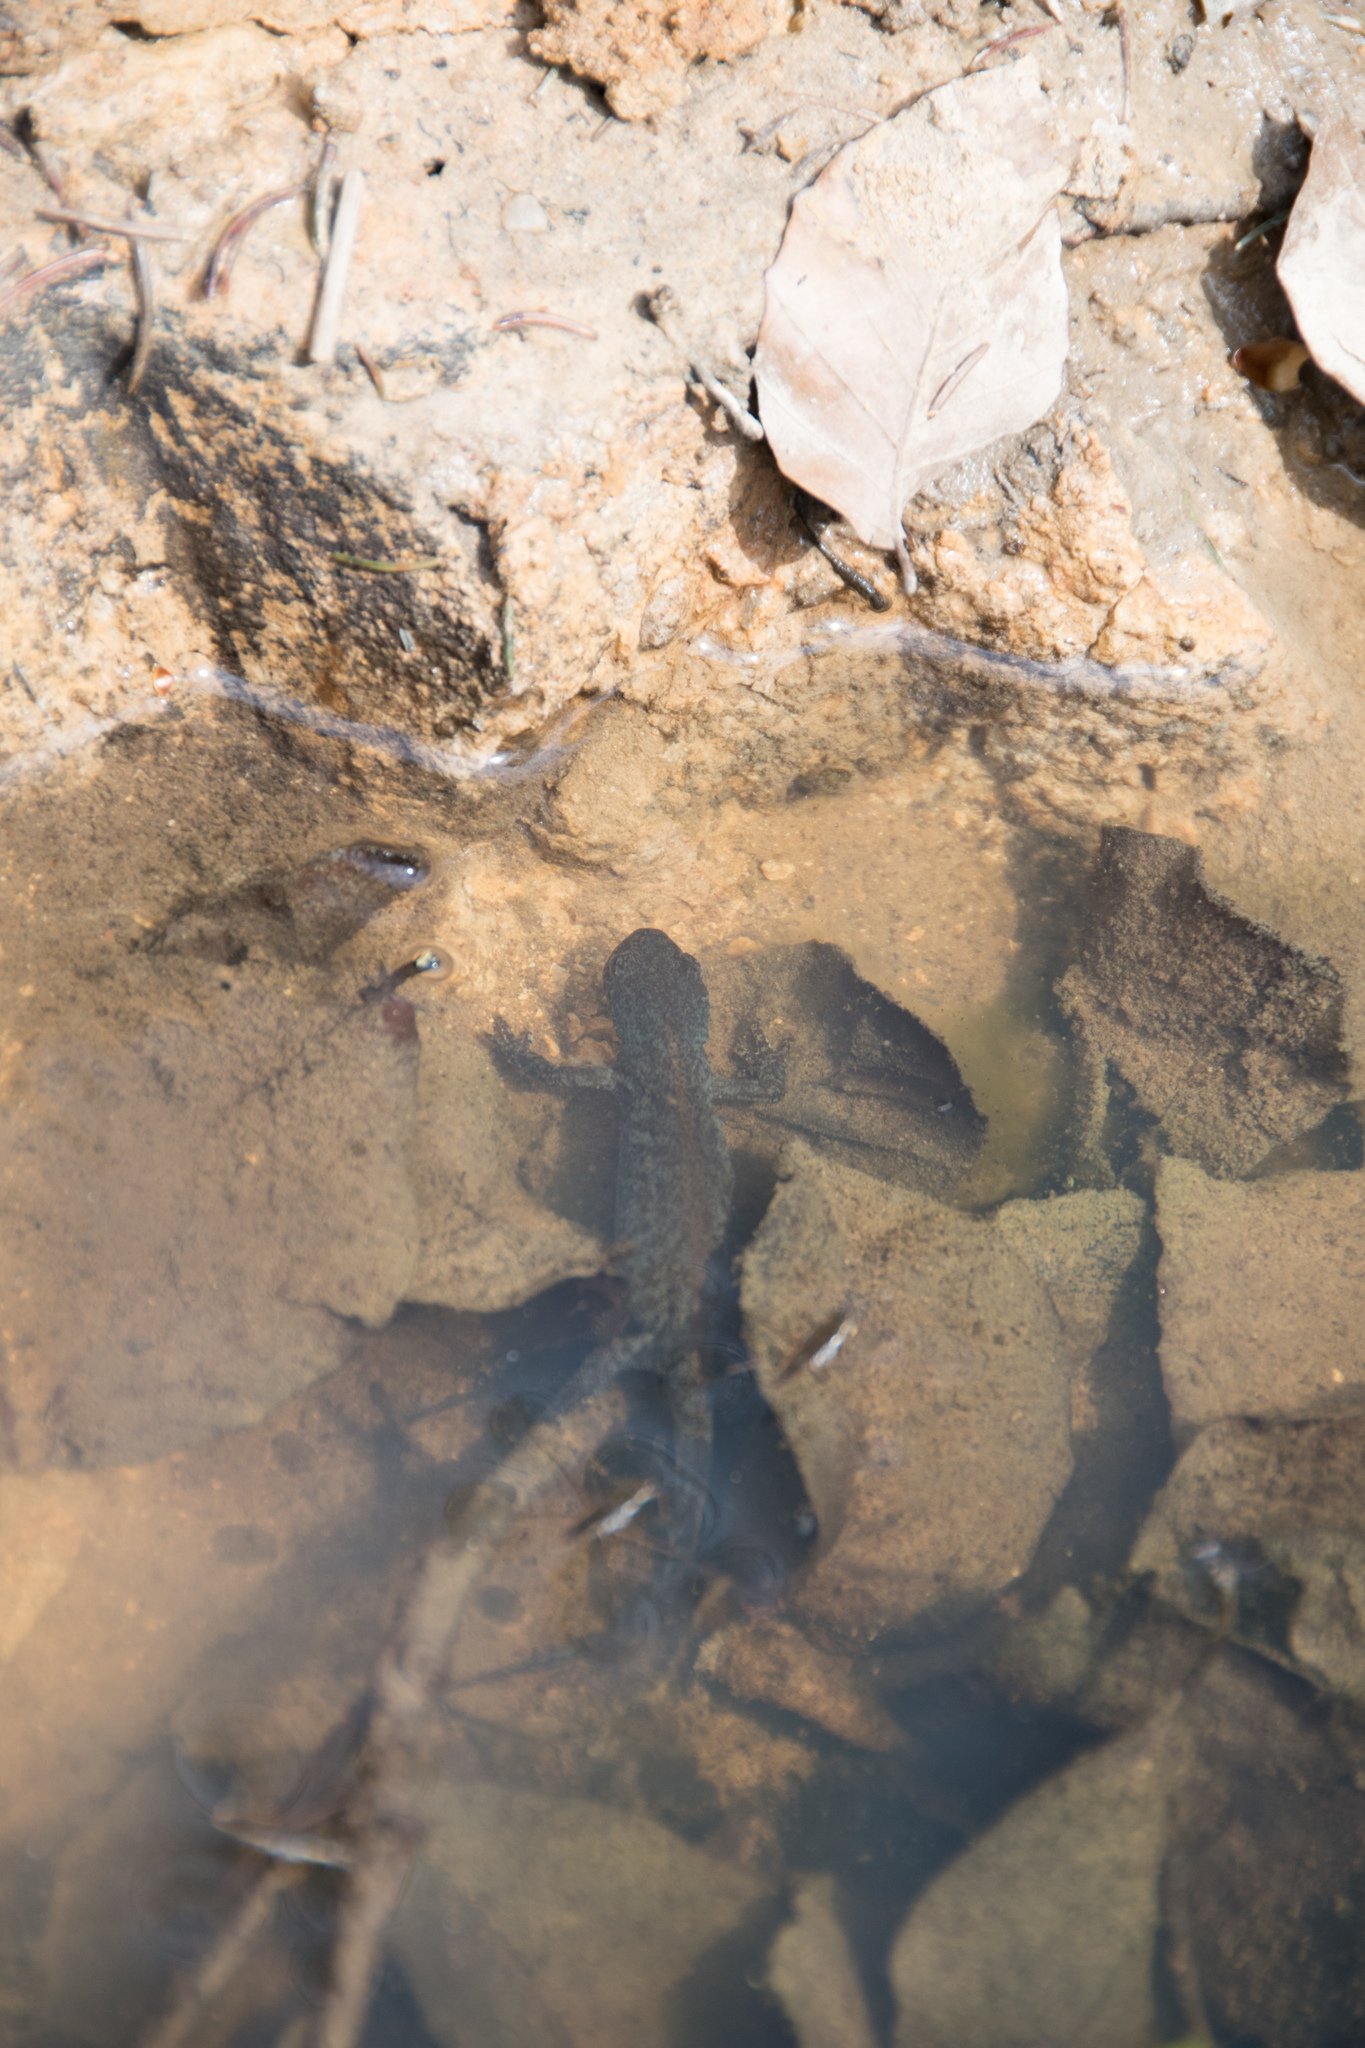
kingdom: Animalia
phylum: Chordata
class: Amphibia
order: Caudata
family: Salamandridae
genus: Ichthyosaura
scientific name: Ichthyosaura alpestris
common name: Alpine newt
